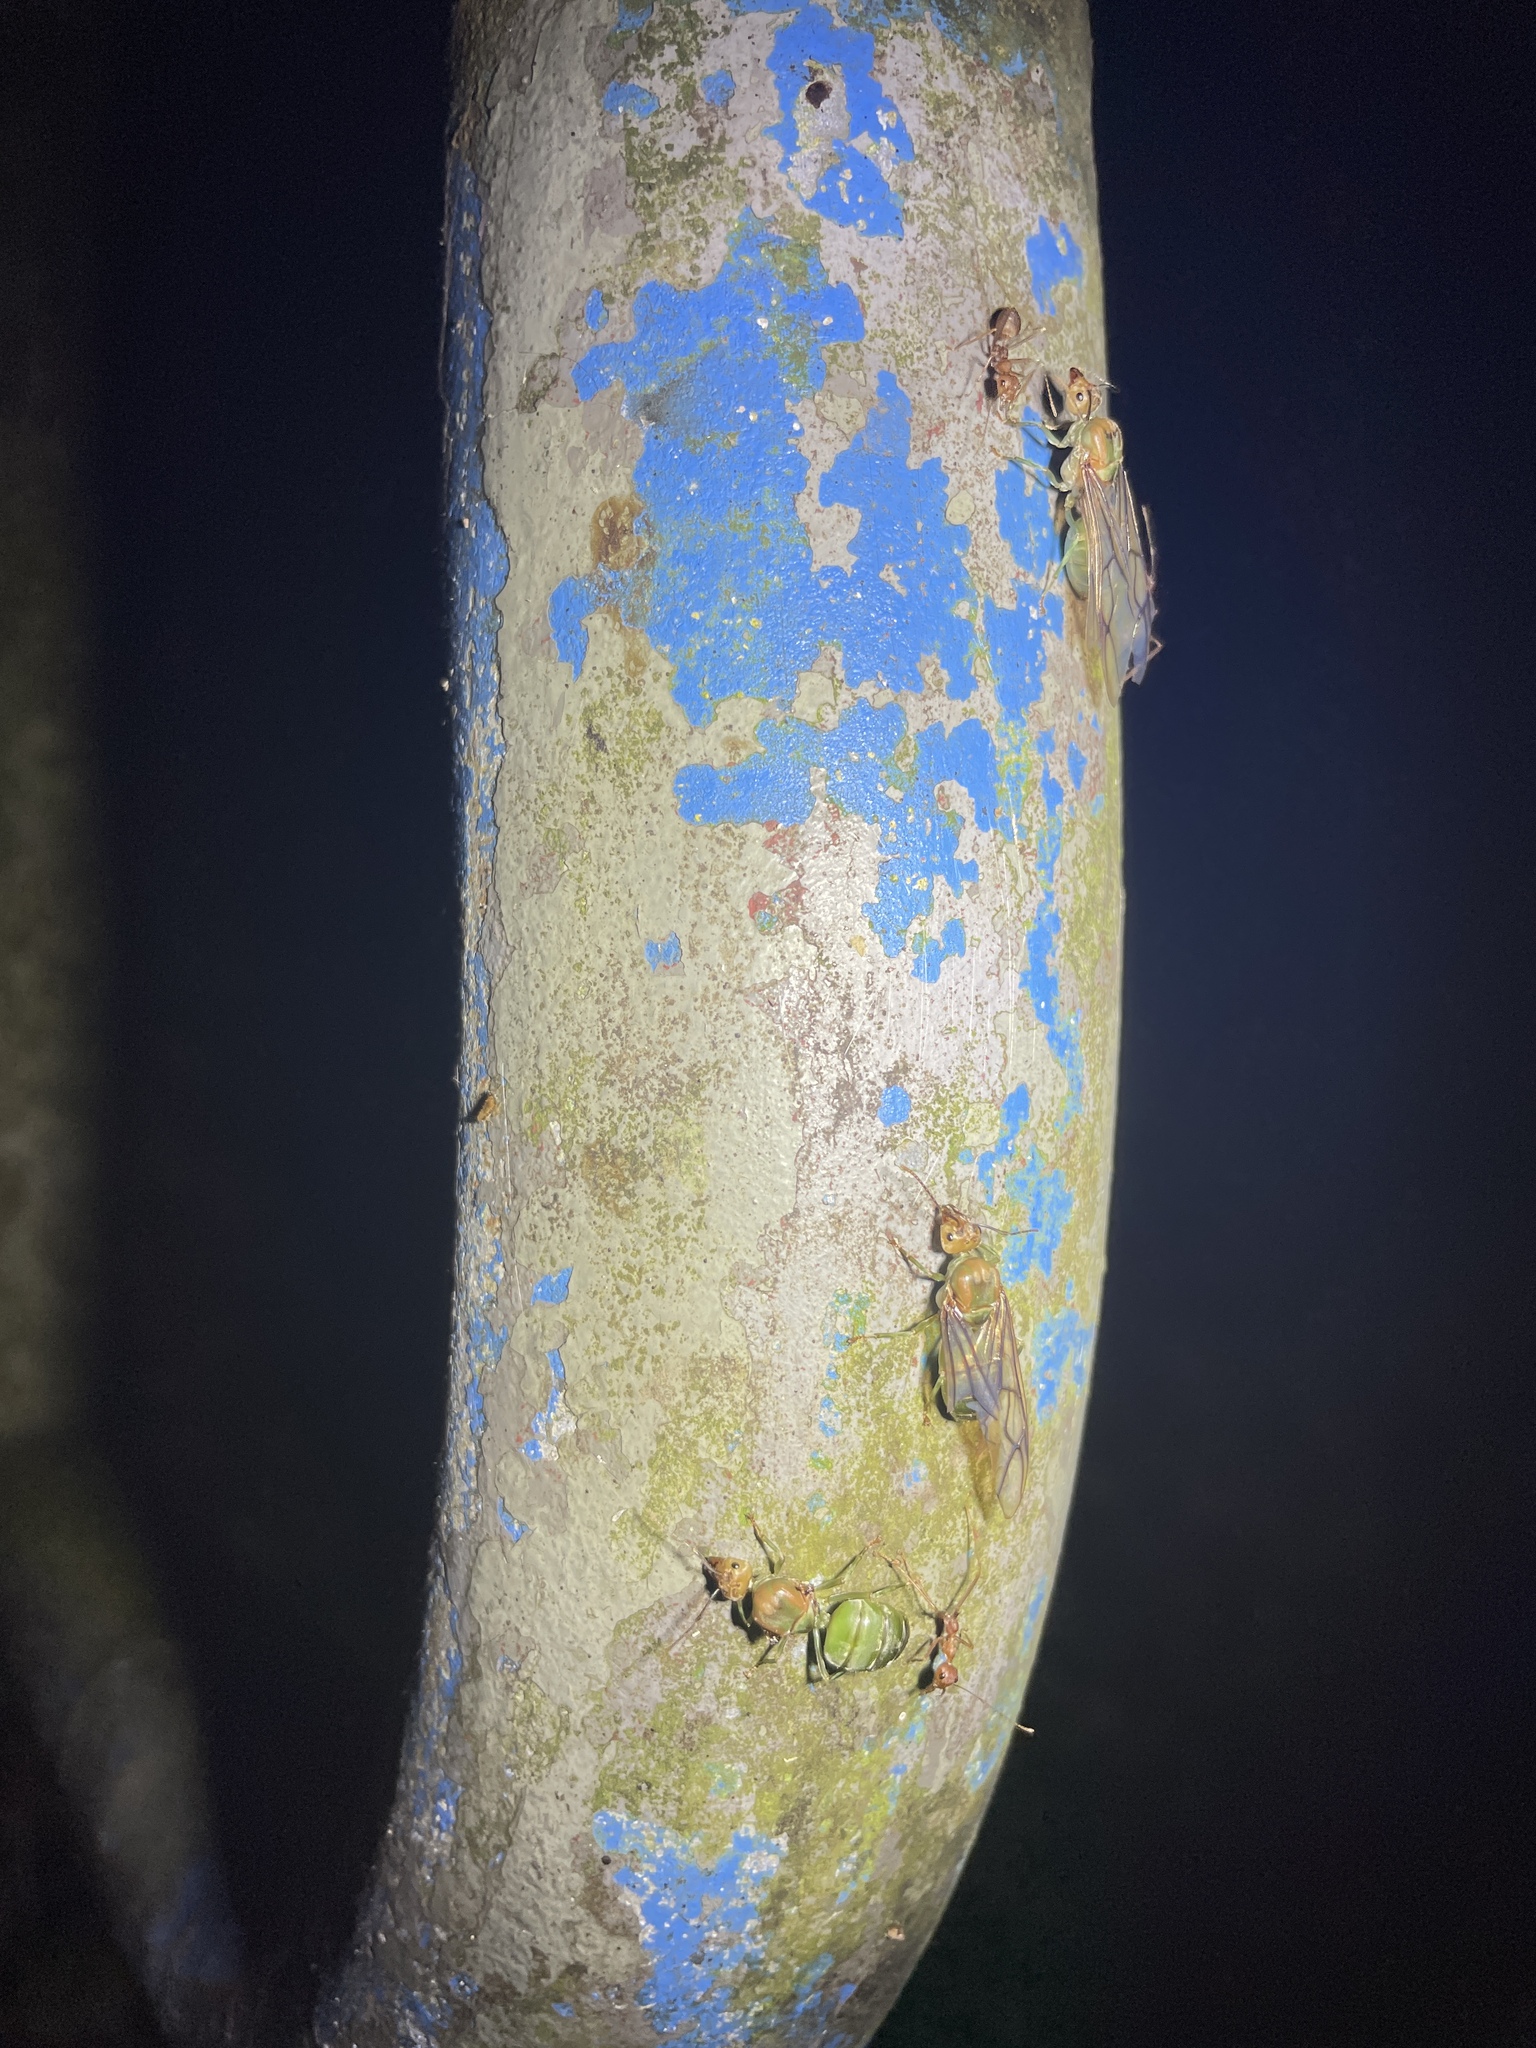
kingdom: Animalia
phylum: Arthropoda
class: Insecta
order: Hymenoptera
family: Formicidae
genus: Oecophylla
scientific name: Oecophylla smaragdina
